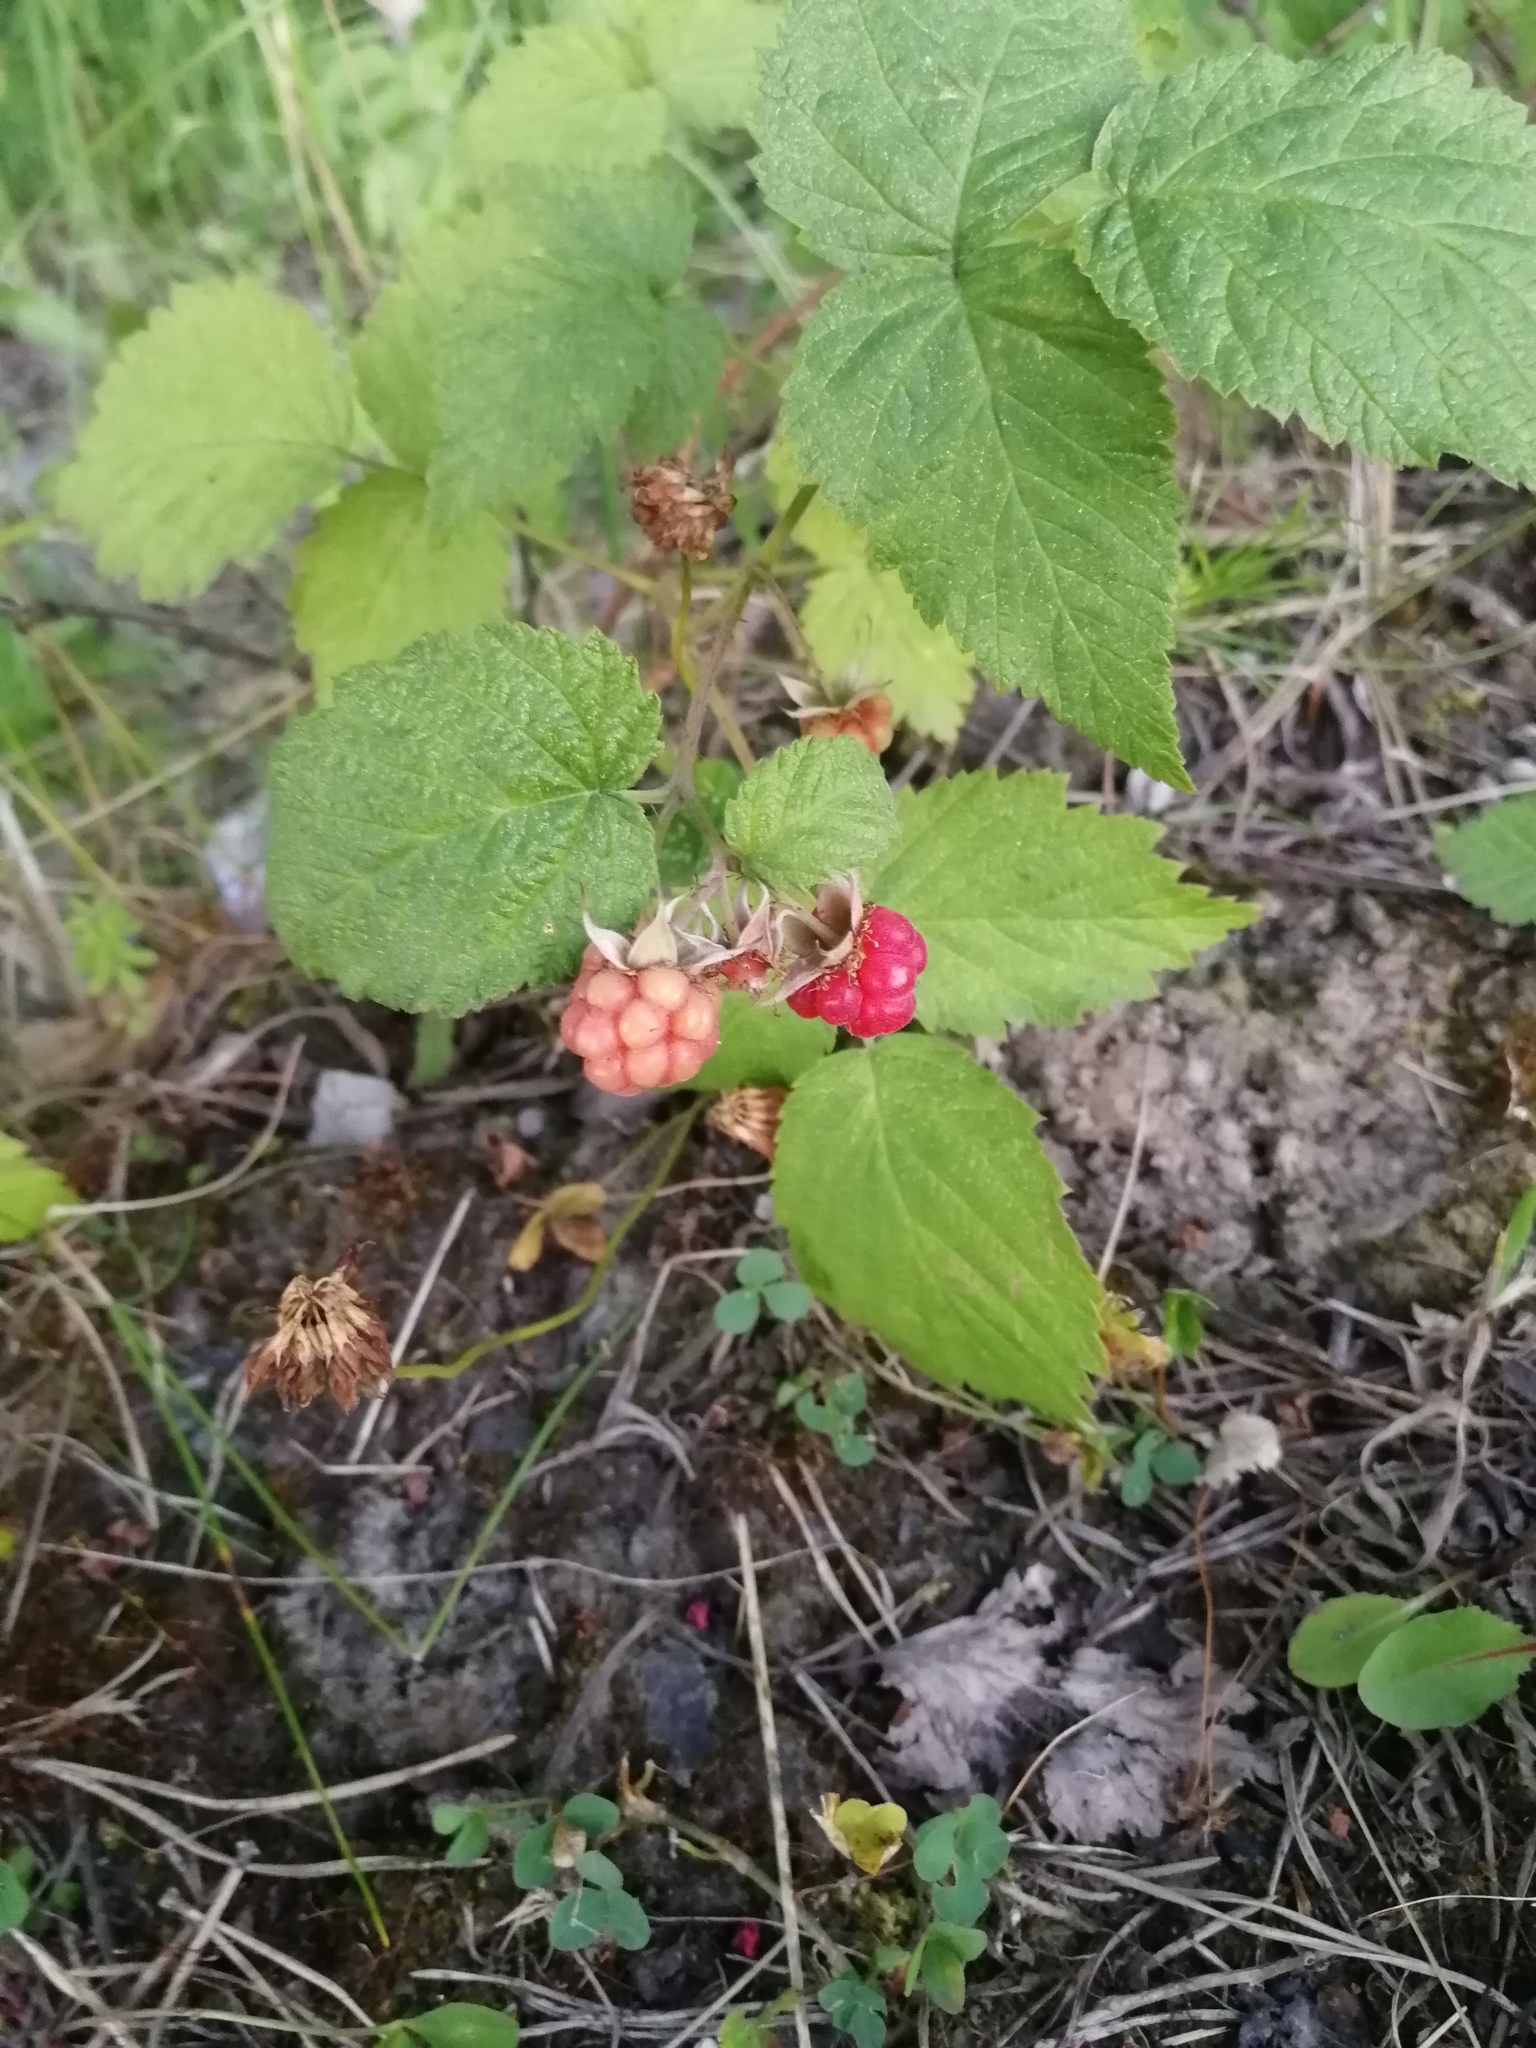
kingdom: Plantae
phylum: Tracheophyta
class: Magnoliopsida
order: Rosales
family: Rosaceae
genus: Rubus
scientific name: Rubus idaeus
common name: Raspberry
